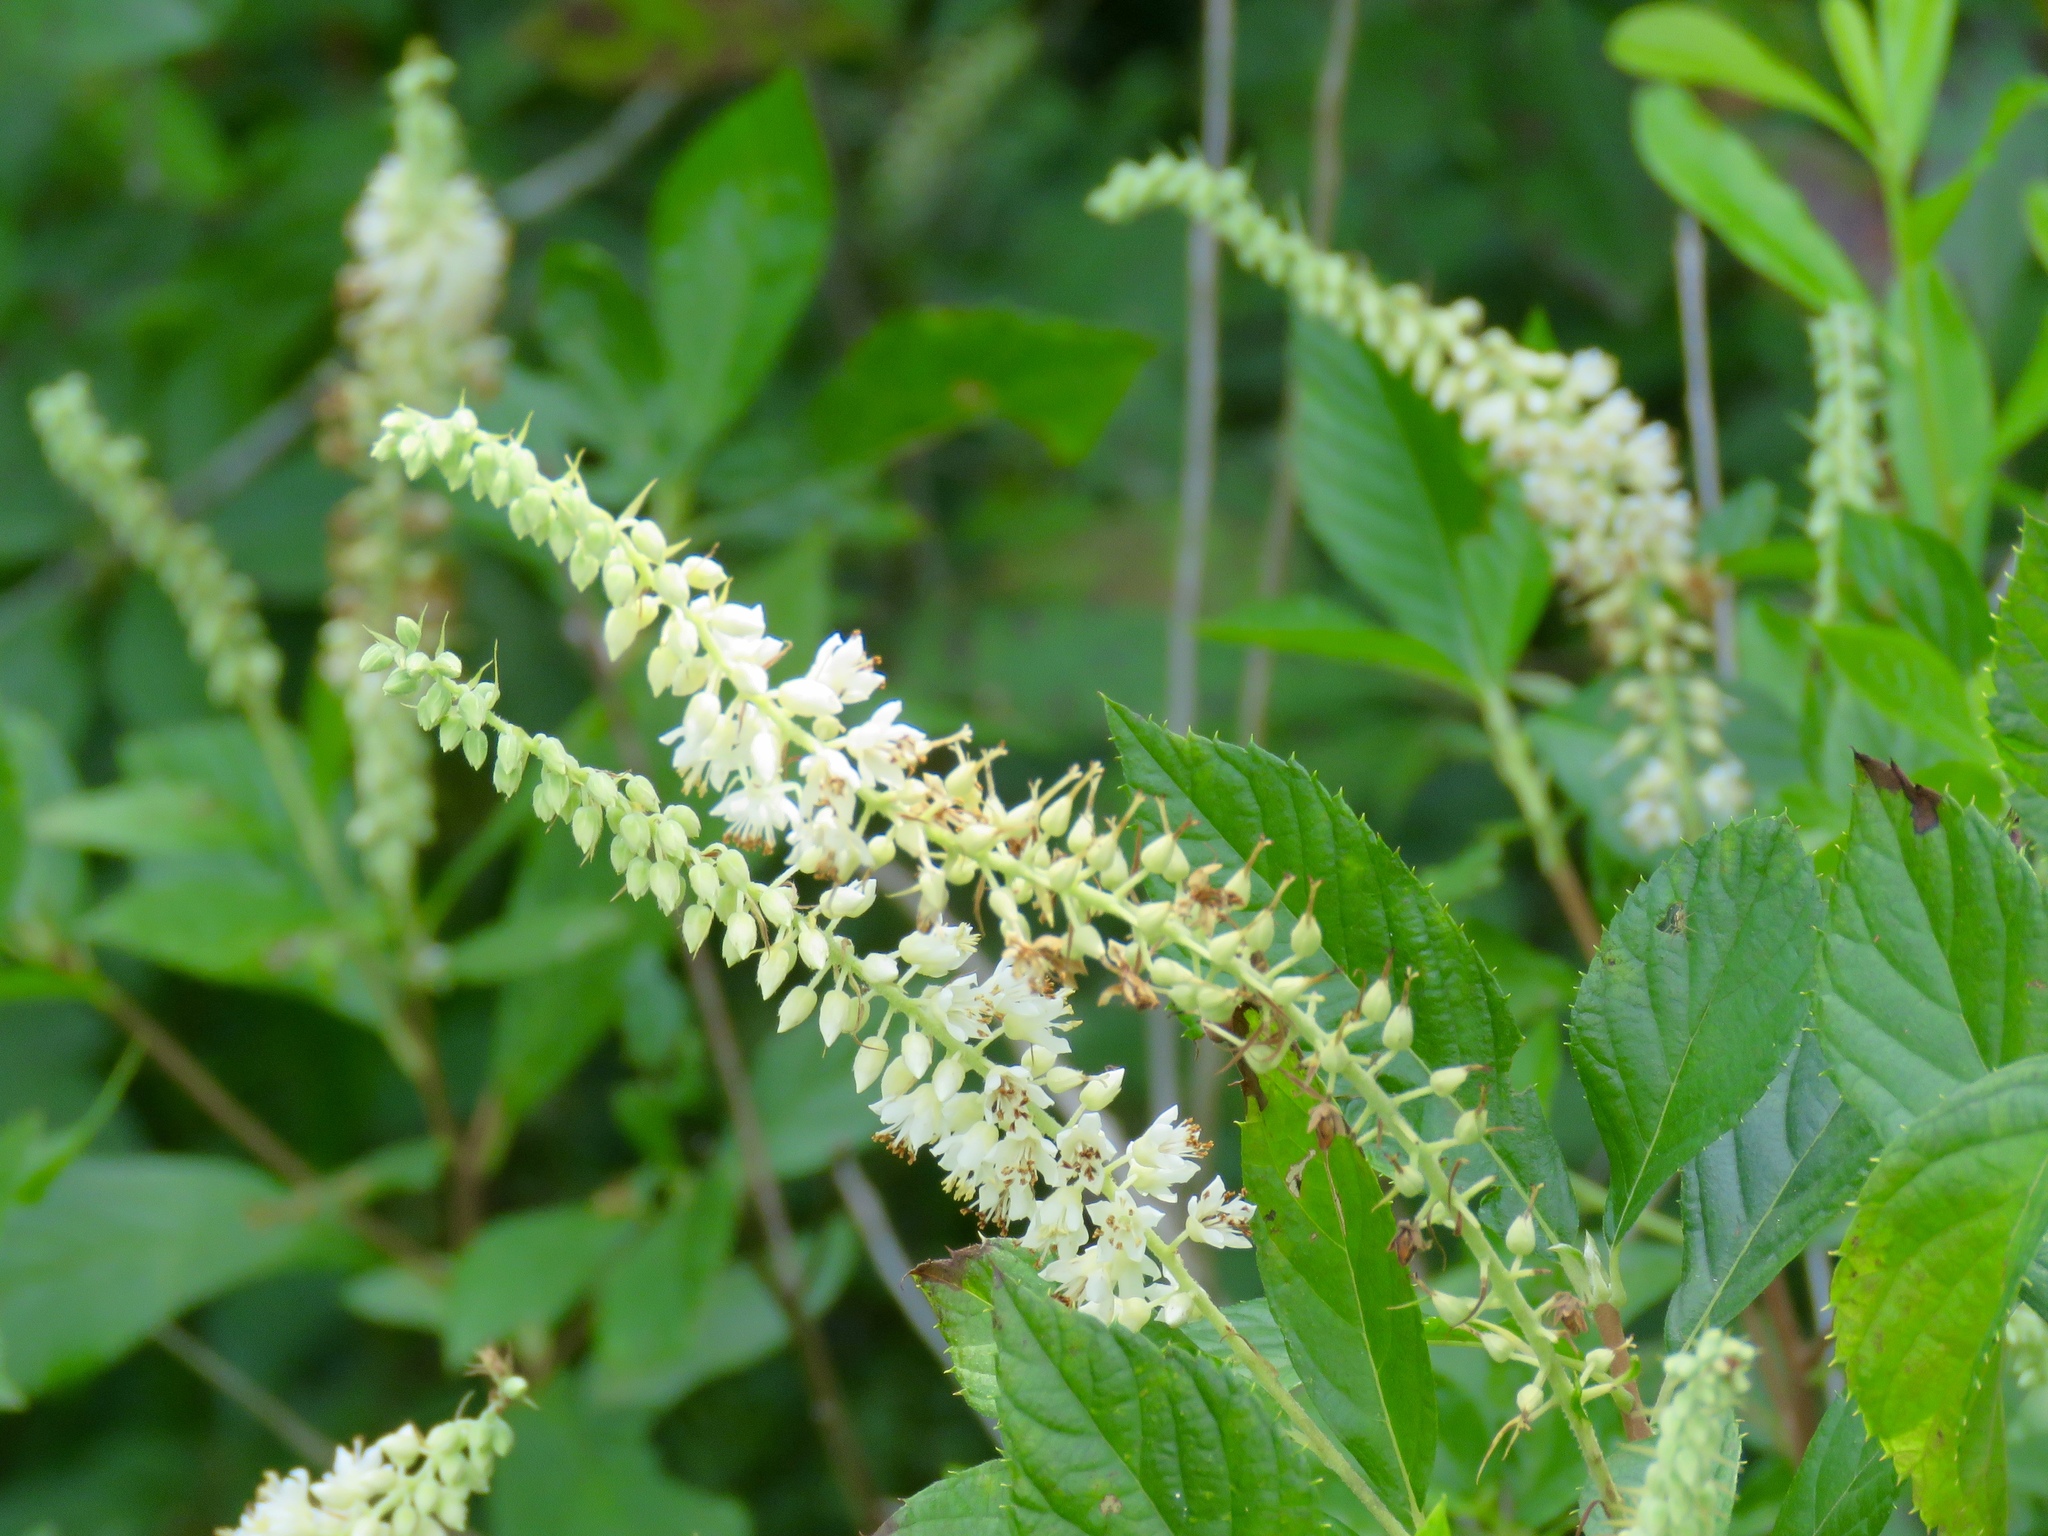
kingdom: Plantae
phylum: Tracheophyta
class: Magnoliopsida
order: Ericales
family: Clethraceae
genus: Clethra
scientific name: Clethra alnifolia
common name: Sweet pepperbush
